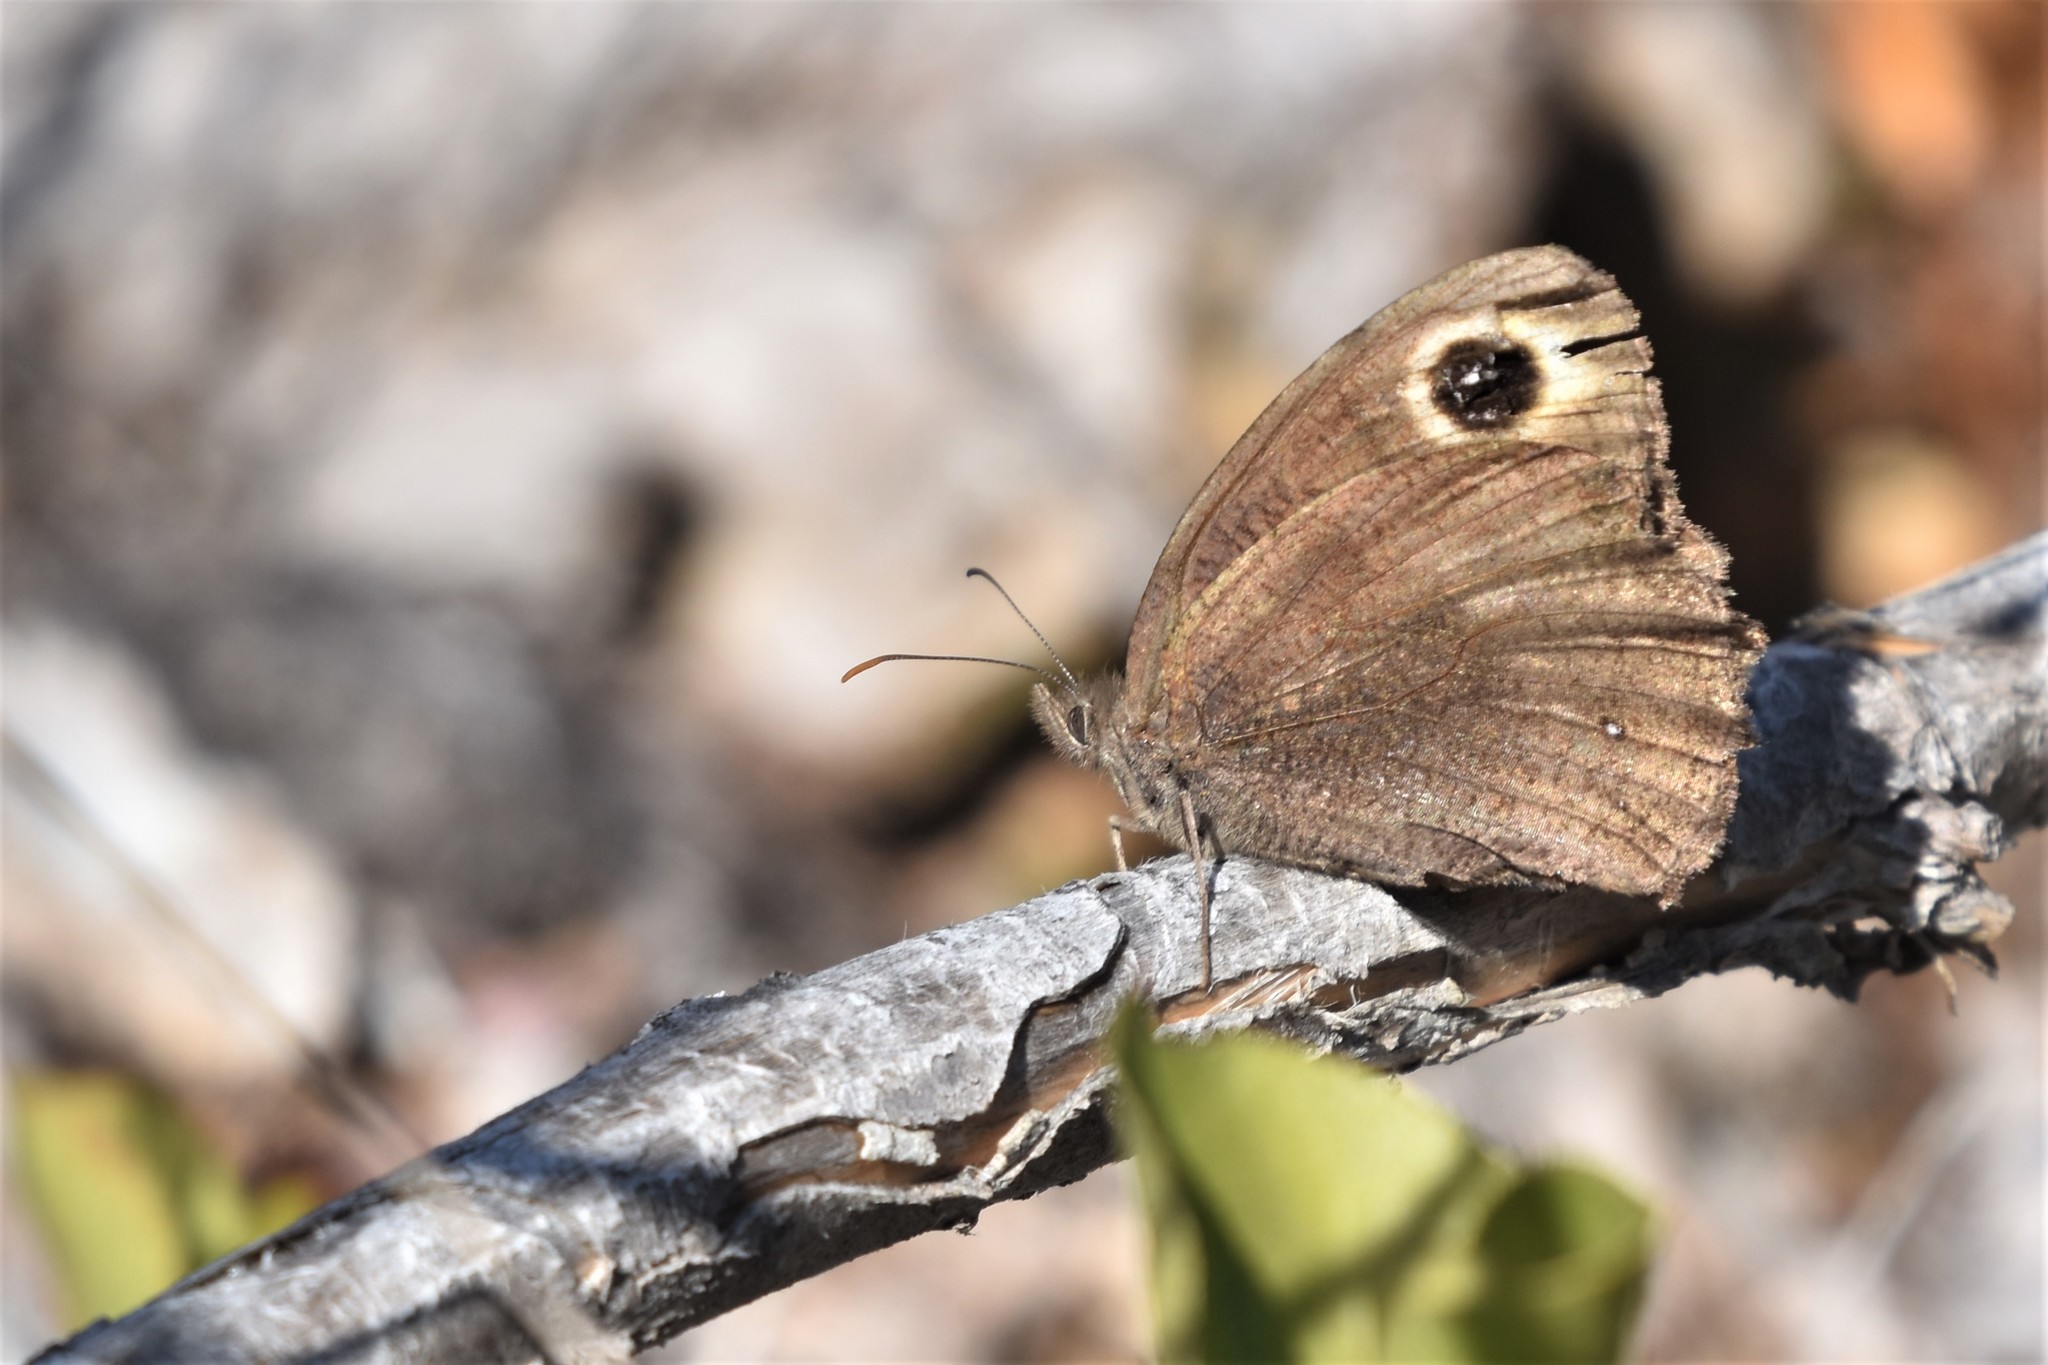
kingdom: Animalia
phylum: Arthropoda
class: Insecta
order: Lepidoptera
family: Nymphalidae
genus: Cercyonis
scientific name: Cercyonis pegala
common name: Common wood-nymph
